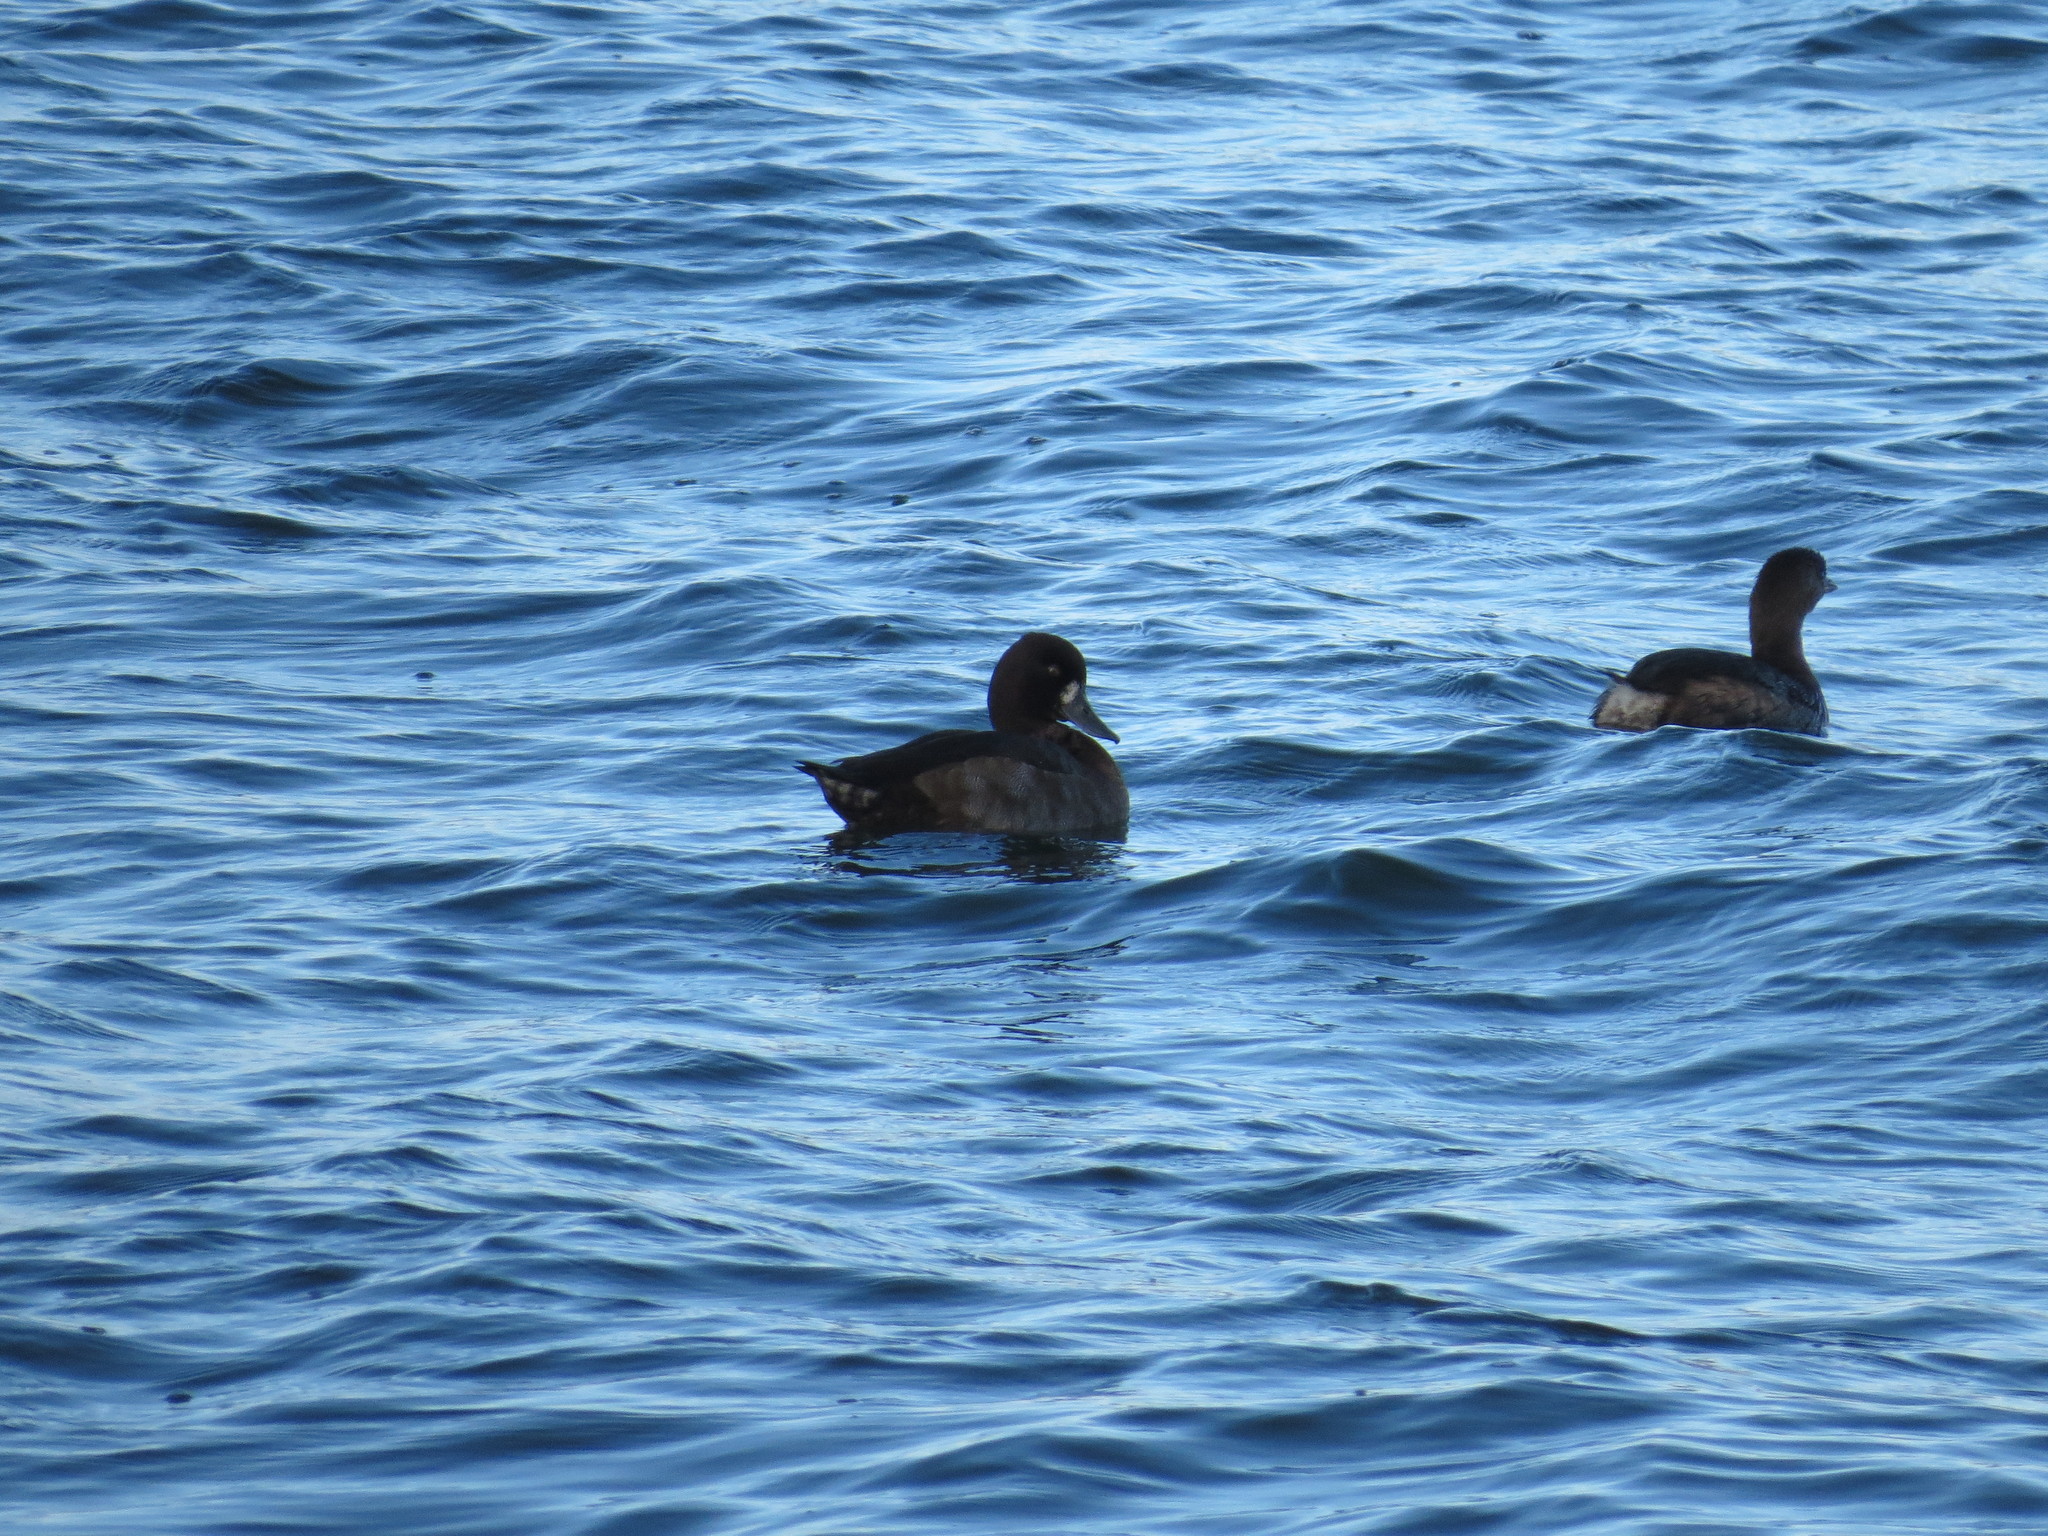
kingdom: Animalia
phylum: Chordata
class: Aves
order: Anseriformes
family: Anatidae
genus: Aythya
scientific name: Aythya affinis
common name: Lesser scaup
